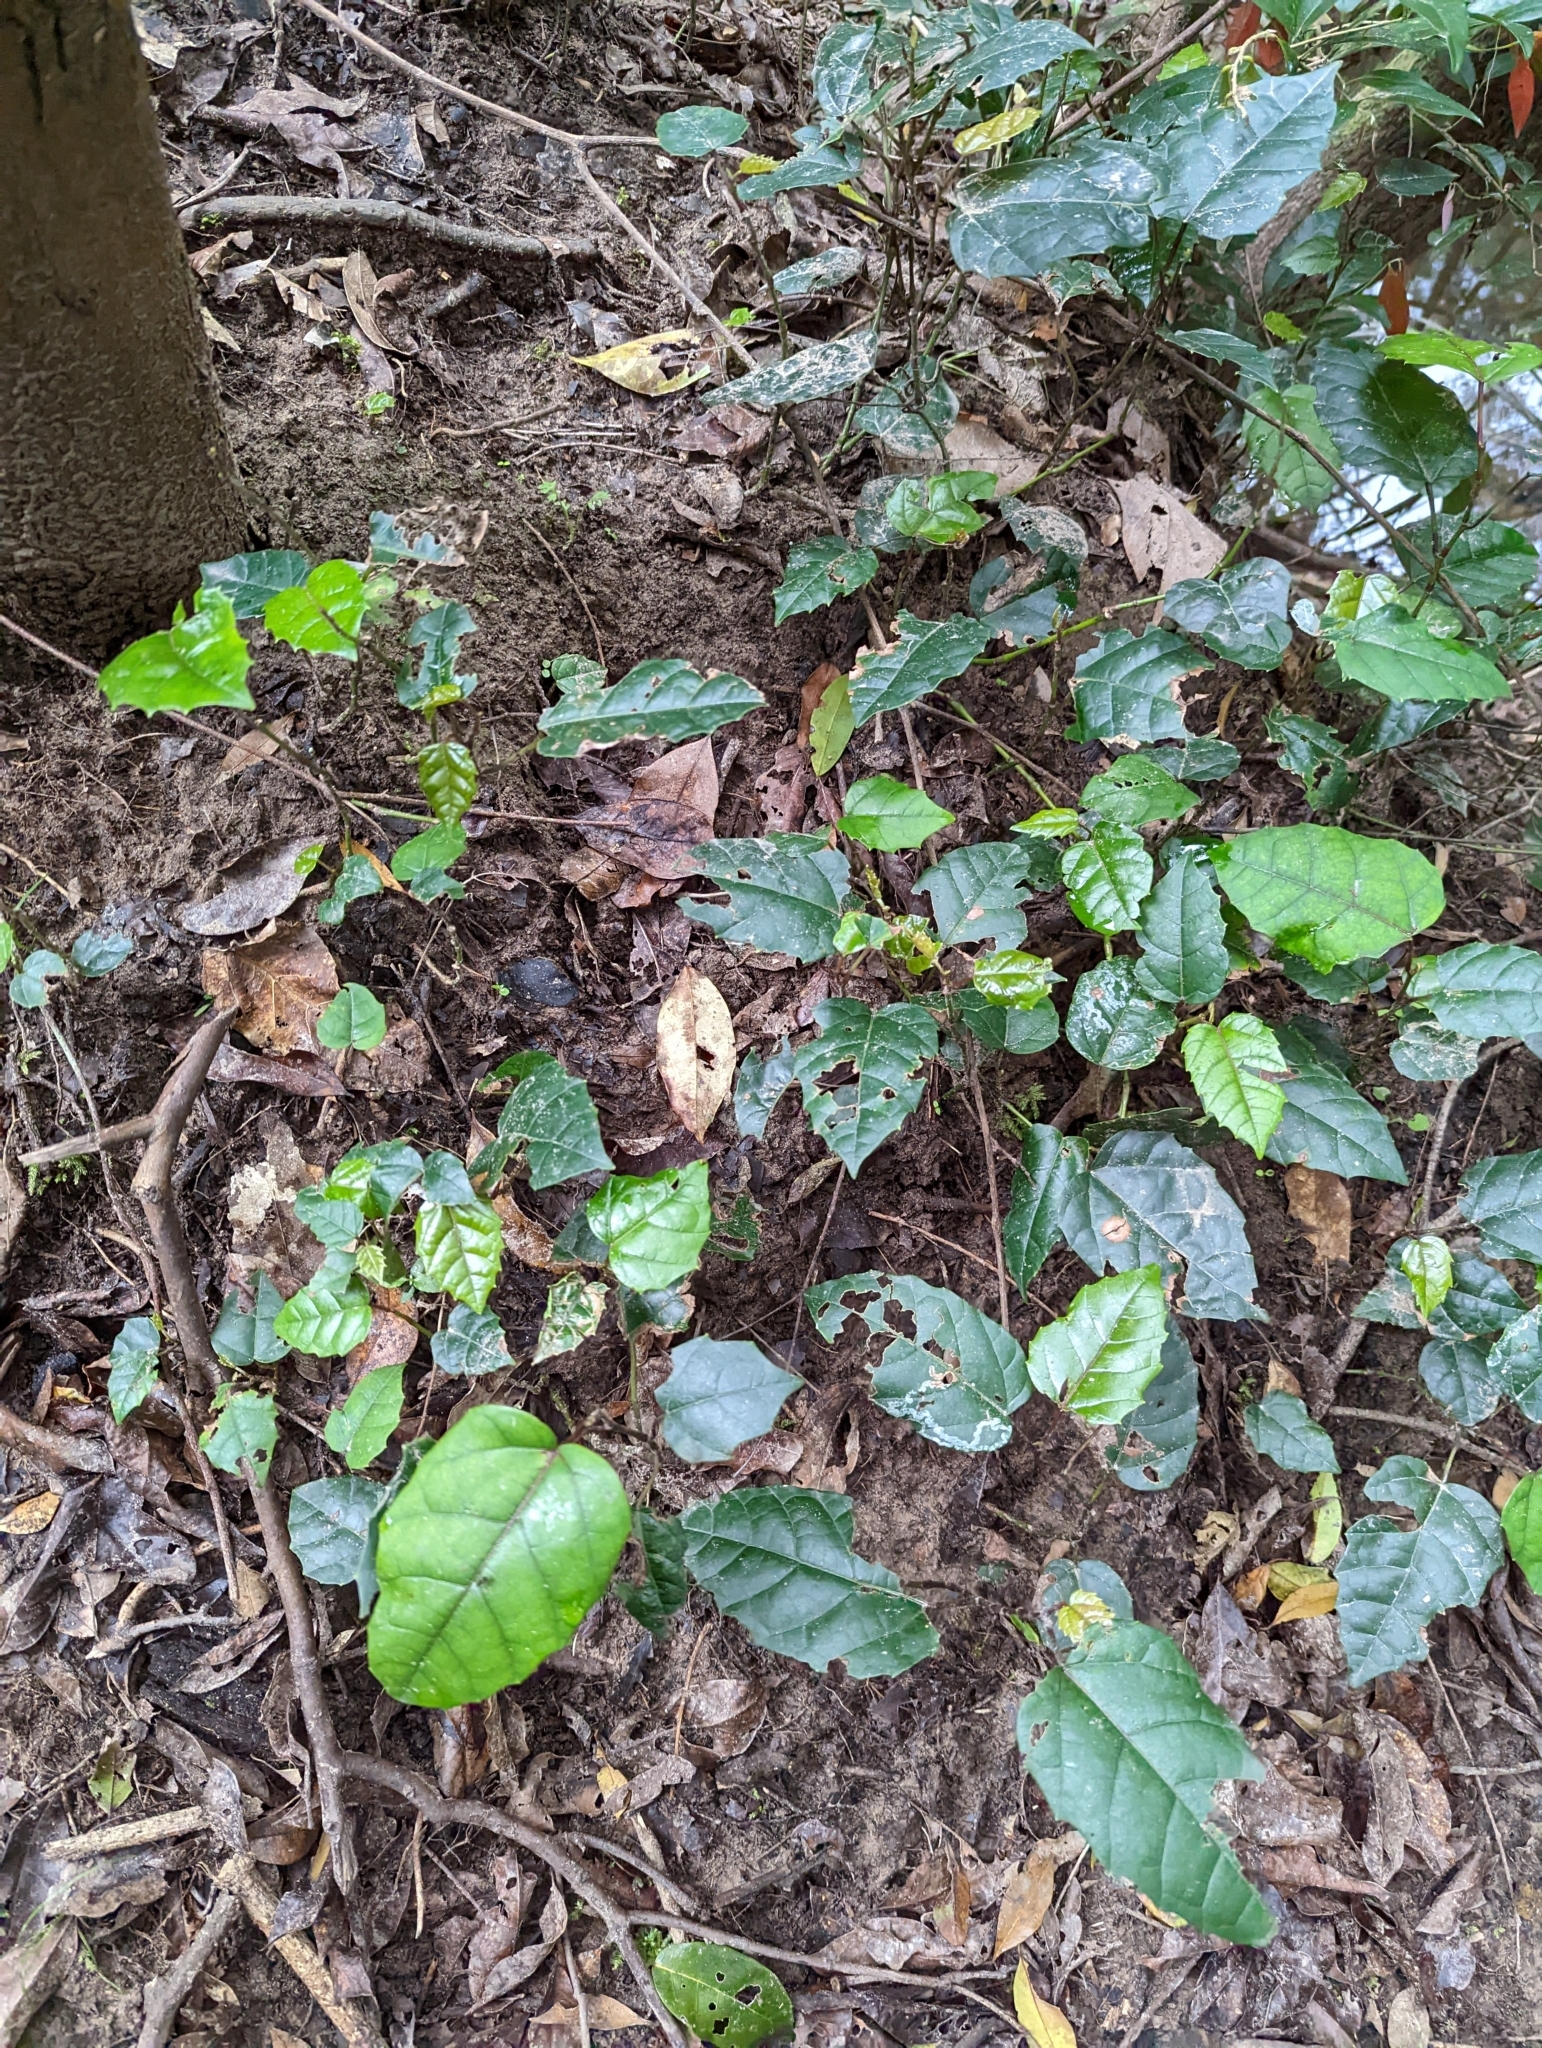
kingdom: Plantae
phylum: Tracheophyta
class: Magnoliopsida
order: Vitales
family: Vitaceae
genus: Cissus
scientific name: Cissus antarctica
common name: Kangaroo vine
